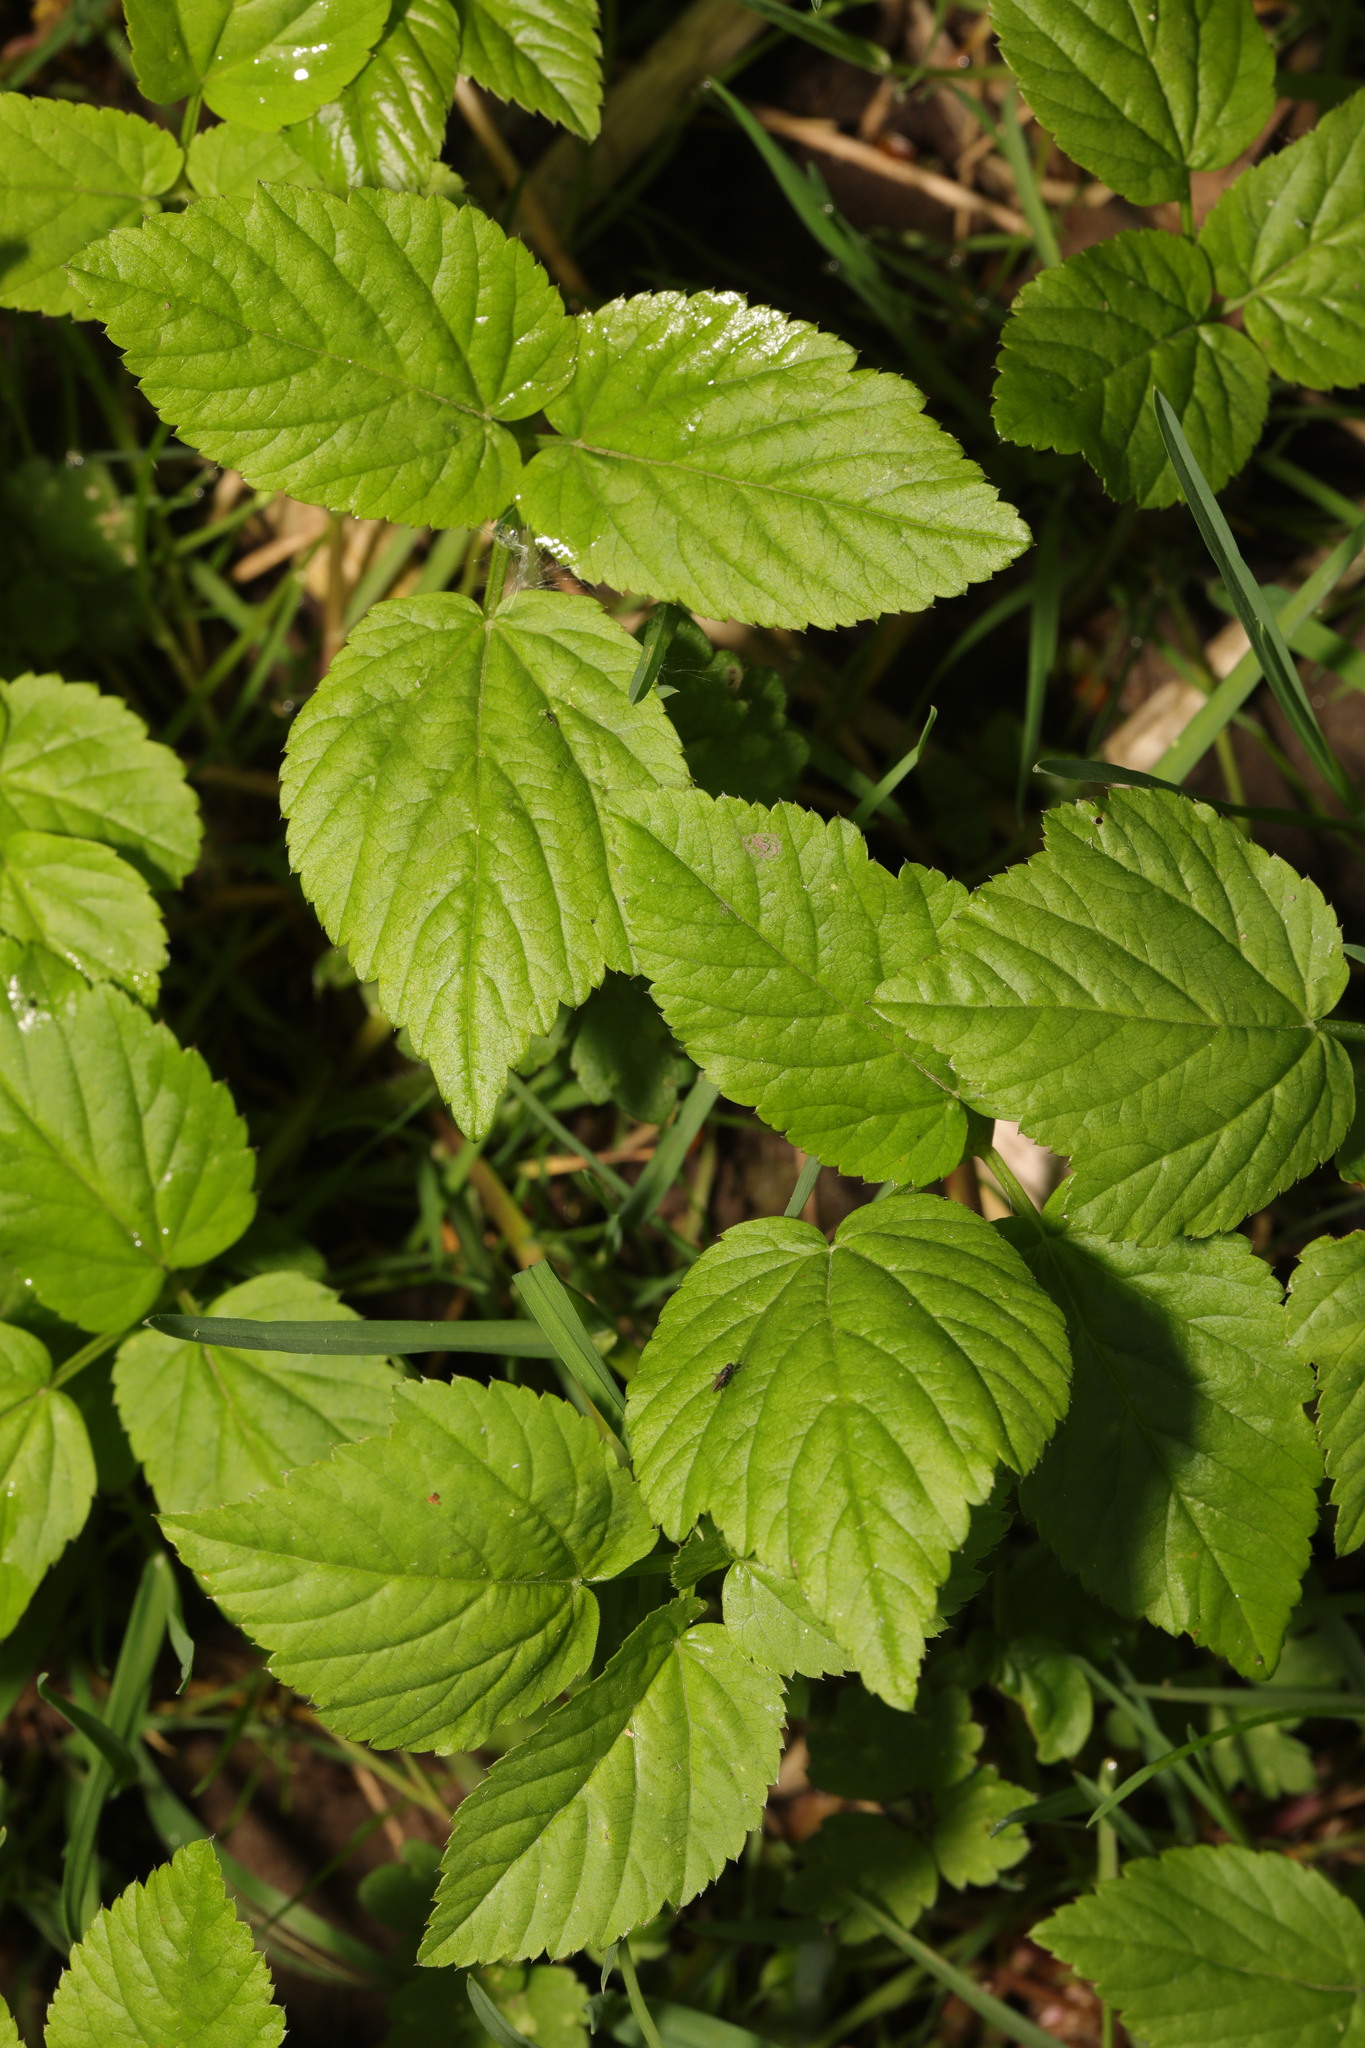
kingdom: Plantae
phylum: Tracheophyta
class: Magnoliopsida
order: Apiales
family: Apiaceae
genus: Aegopodium
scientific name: Aegopodium podagraria
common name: Ground-elder
